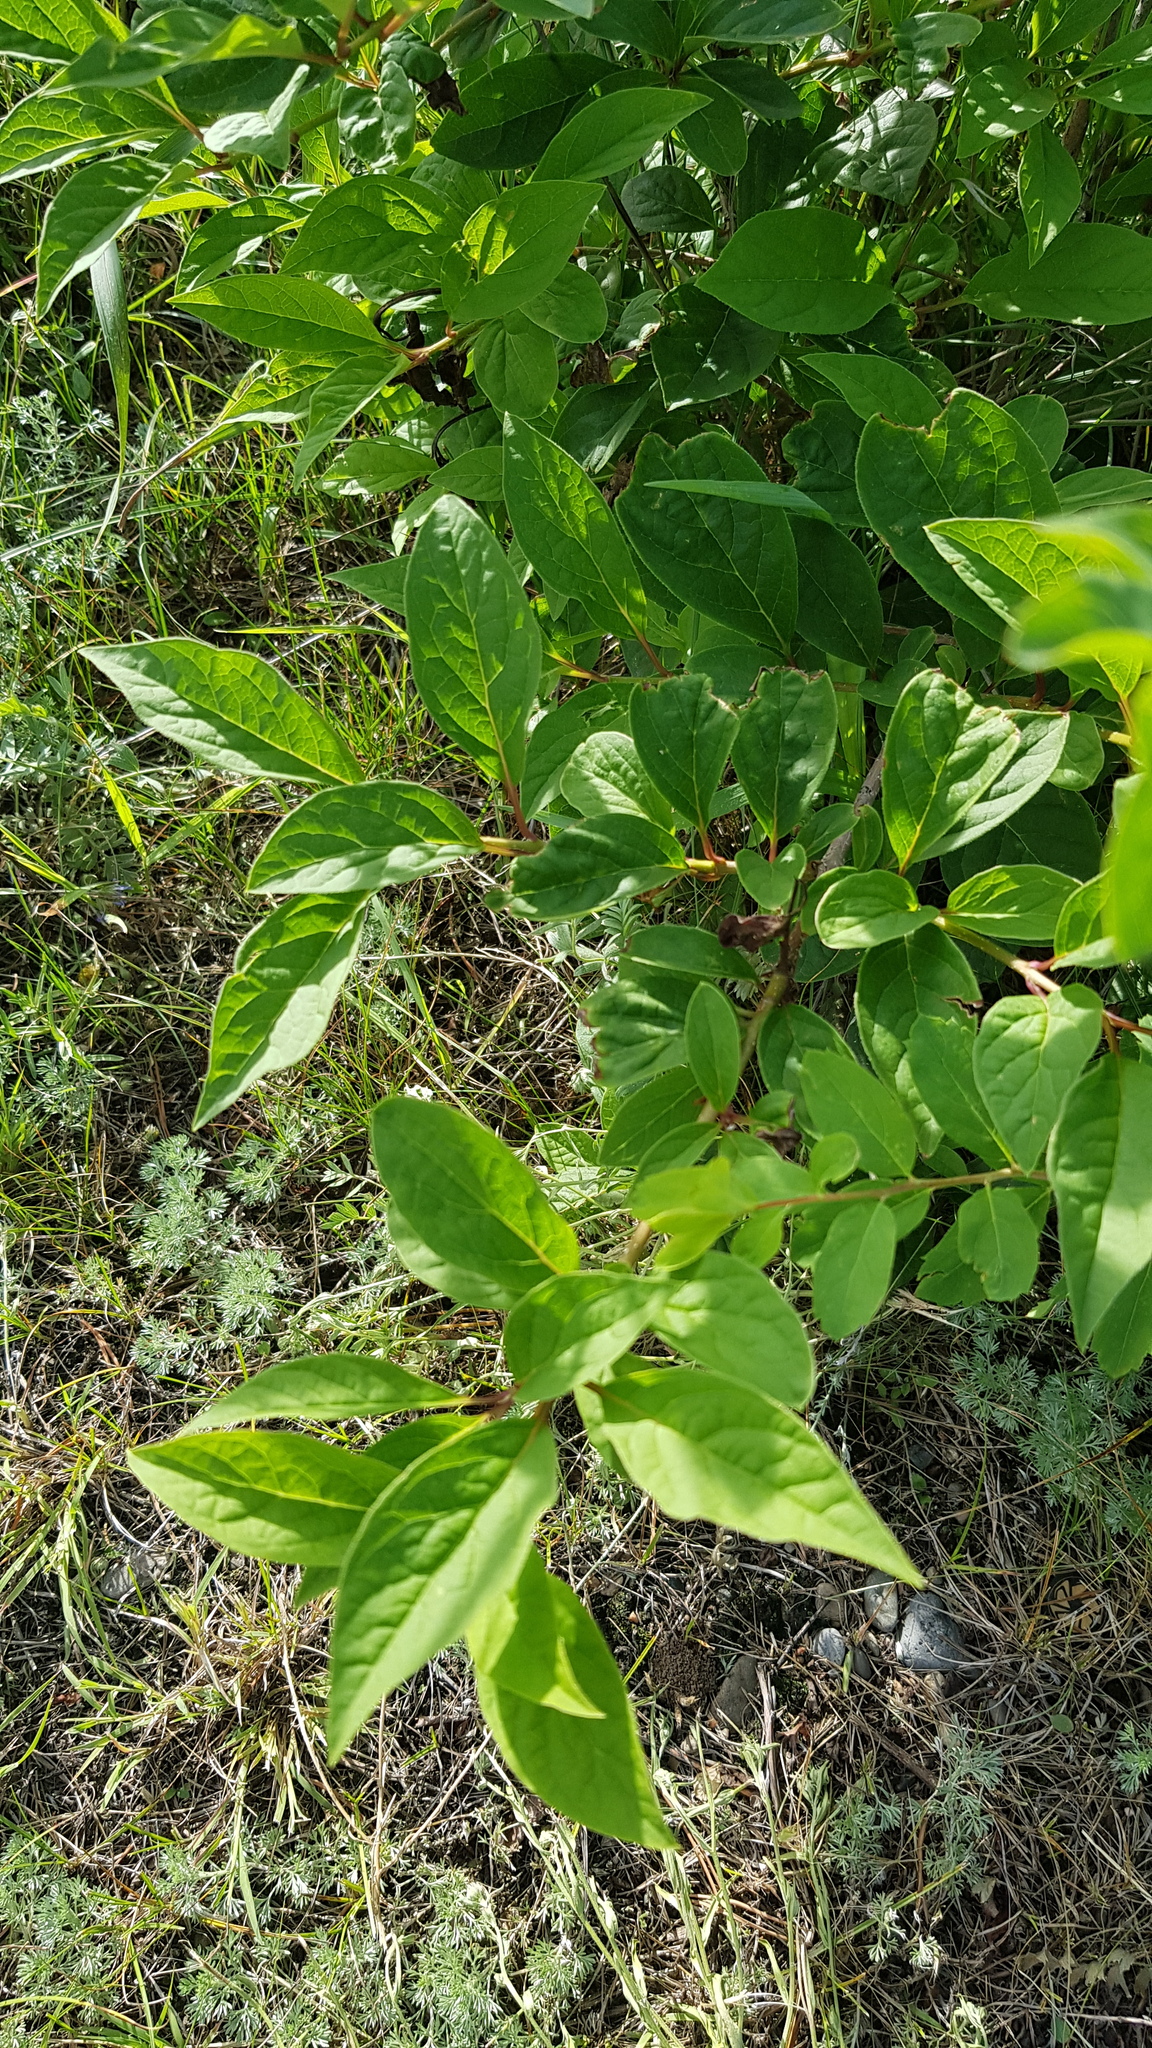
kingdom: Plantae
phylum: Tracheophyta
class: Magnoliopsida
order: Rosales
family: Rosaceae
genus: Prunus
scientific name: Prunus padus
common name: Bird cherry
